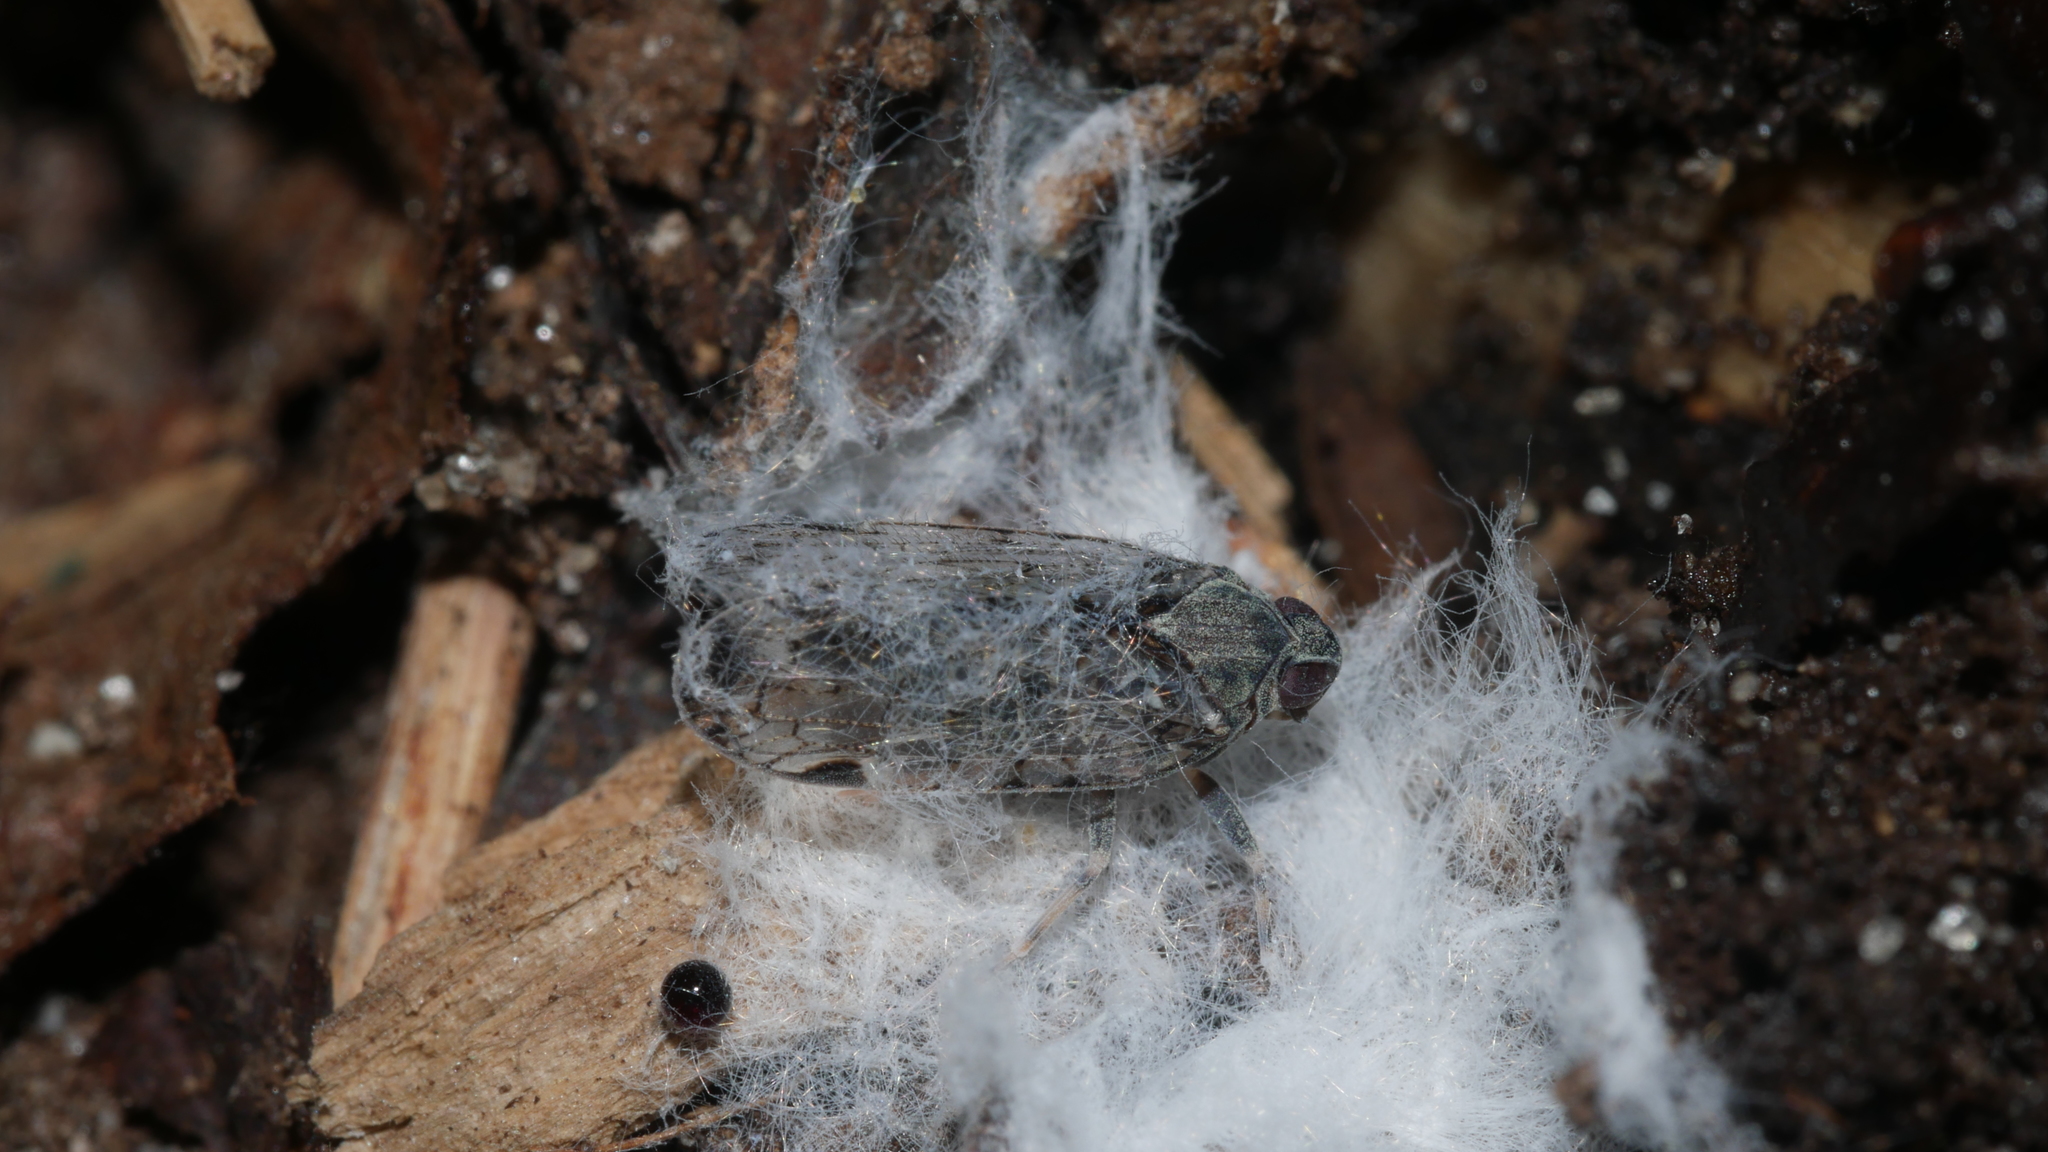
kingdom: Animalia
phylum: Arthropoda
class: Insecta
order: Hemiptera
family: Cixiidae
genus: Melanoliarus
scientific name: Melanoliarus placitus
